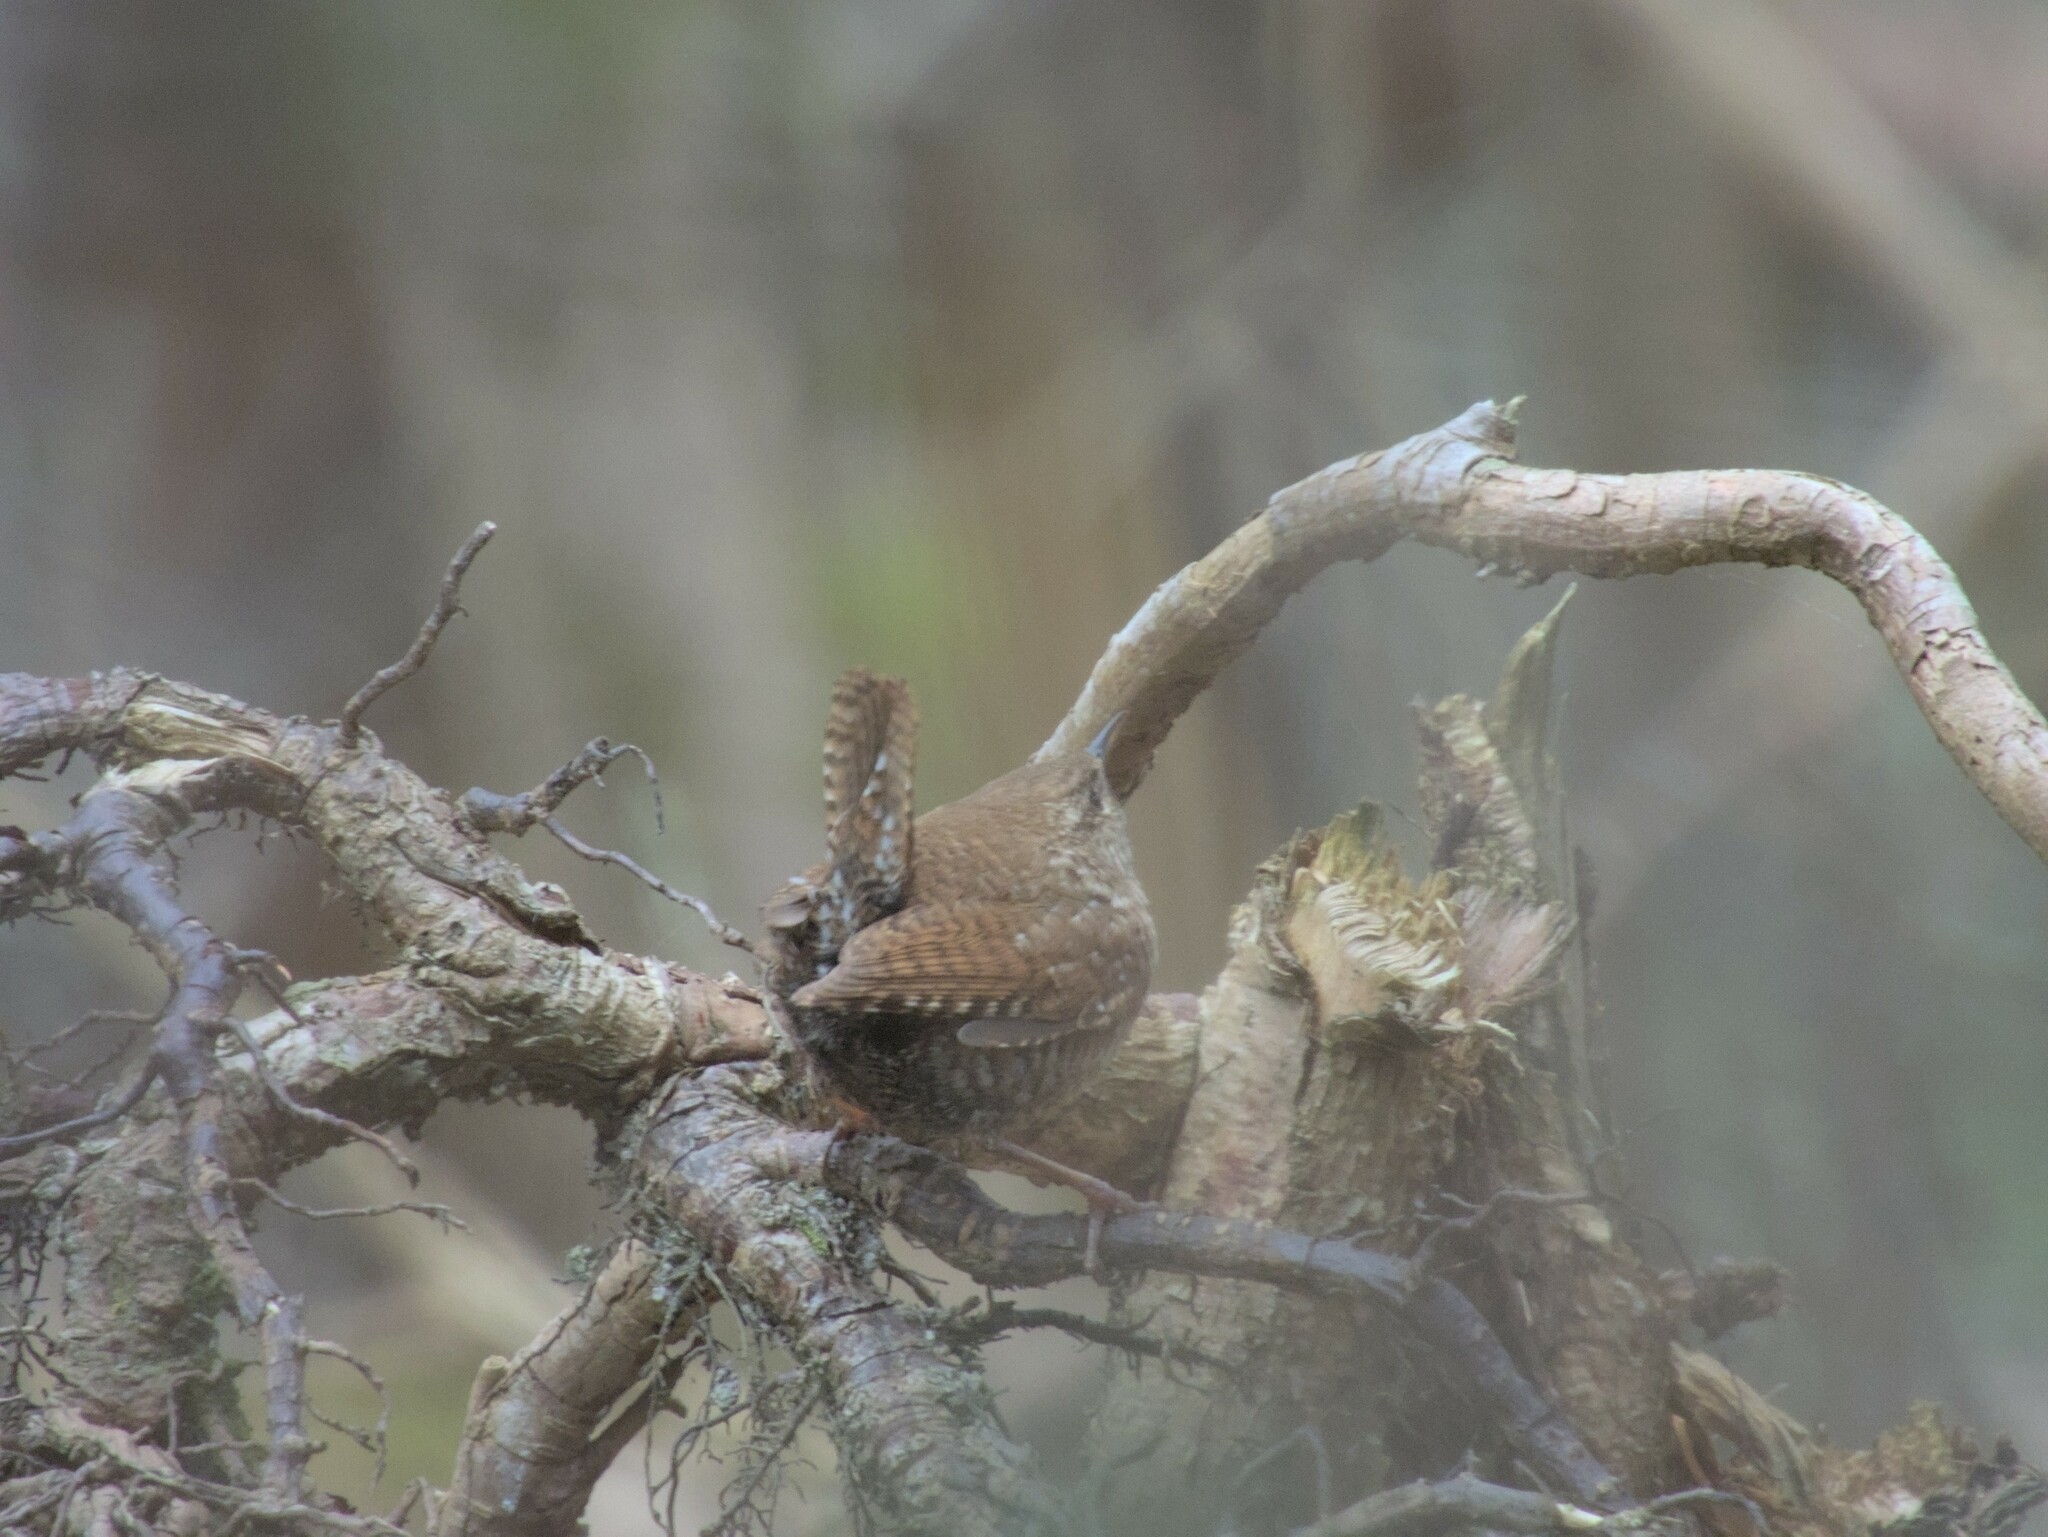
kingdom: Animalia
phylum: Chordata
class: Aves
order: Passeriformes
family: Troglodytidae
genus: Troglodytes
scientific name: Troglodytes hiemalis
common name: Winter wren
